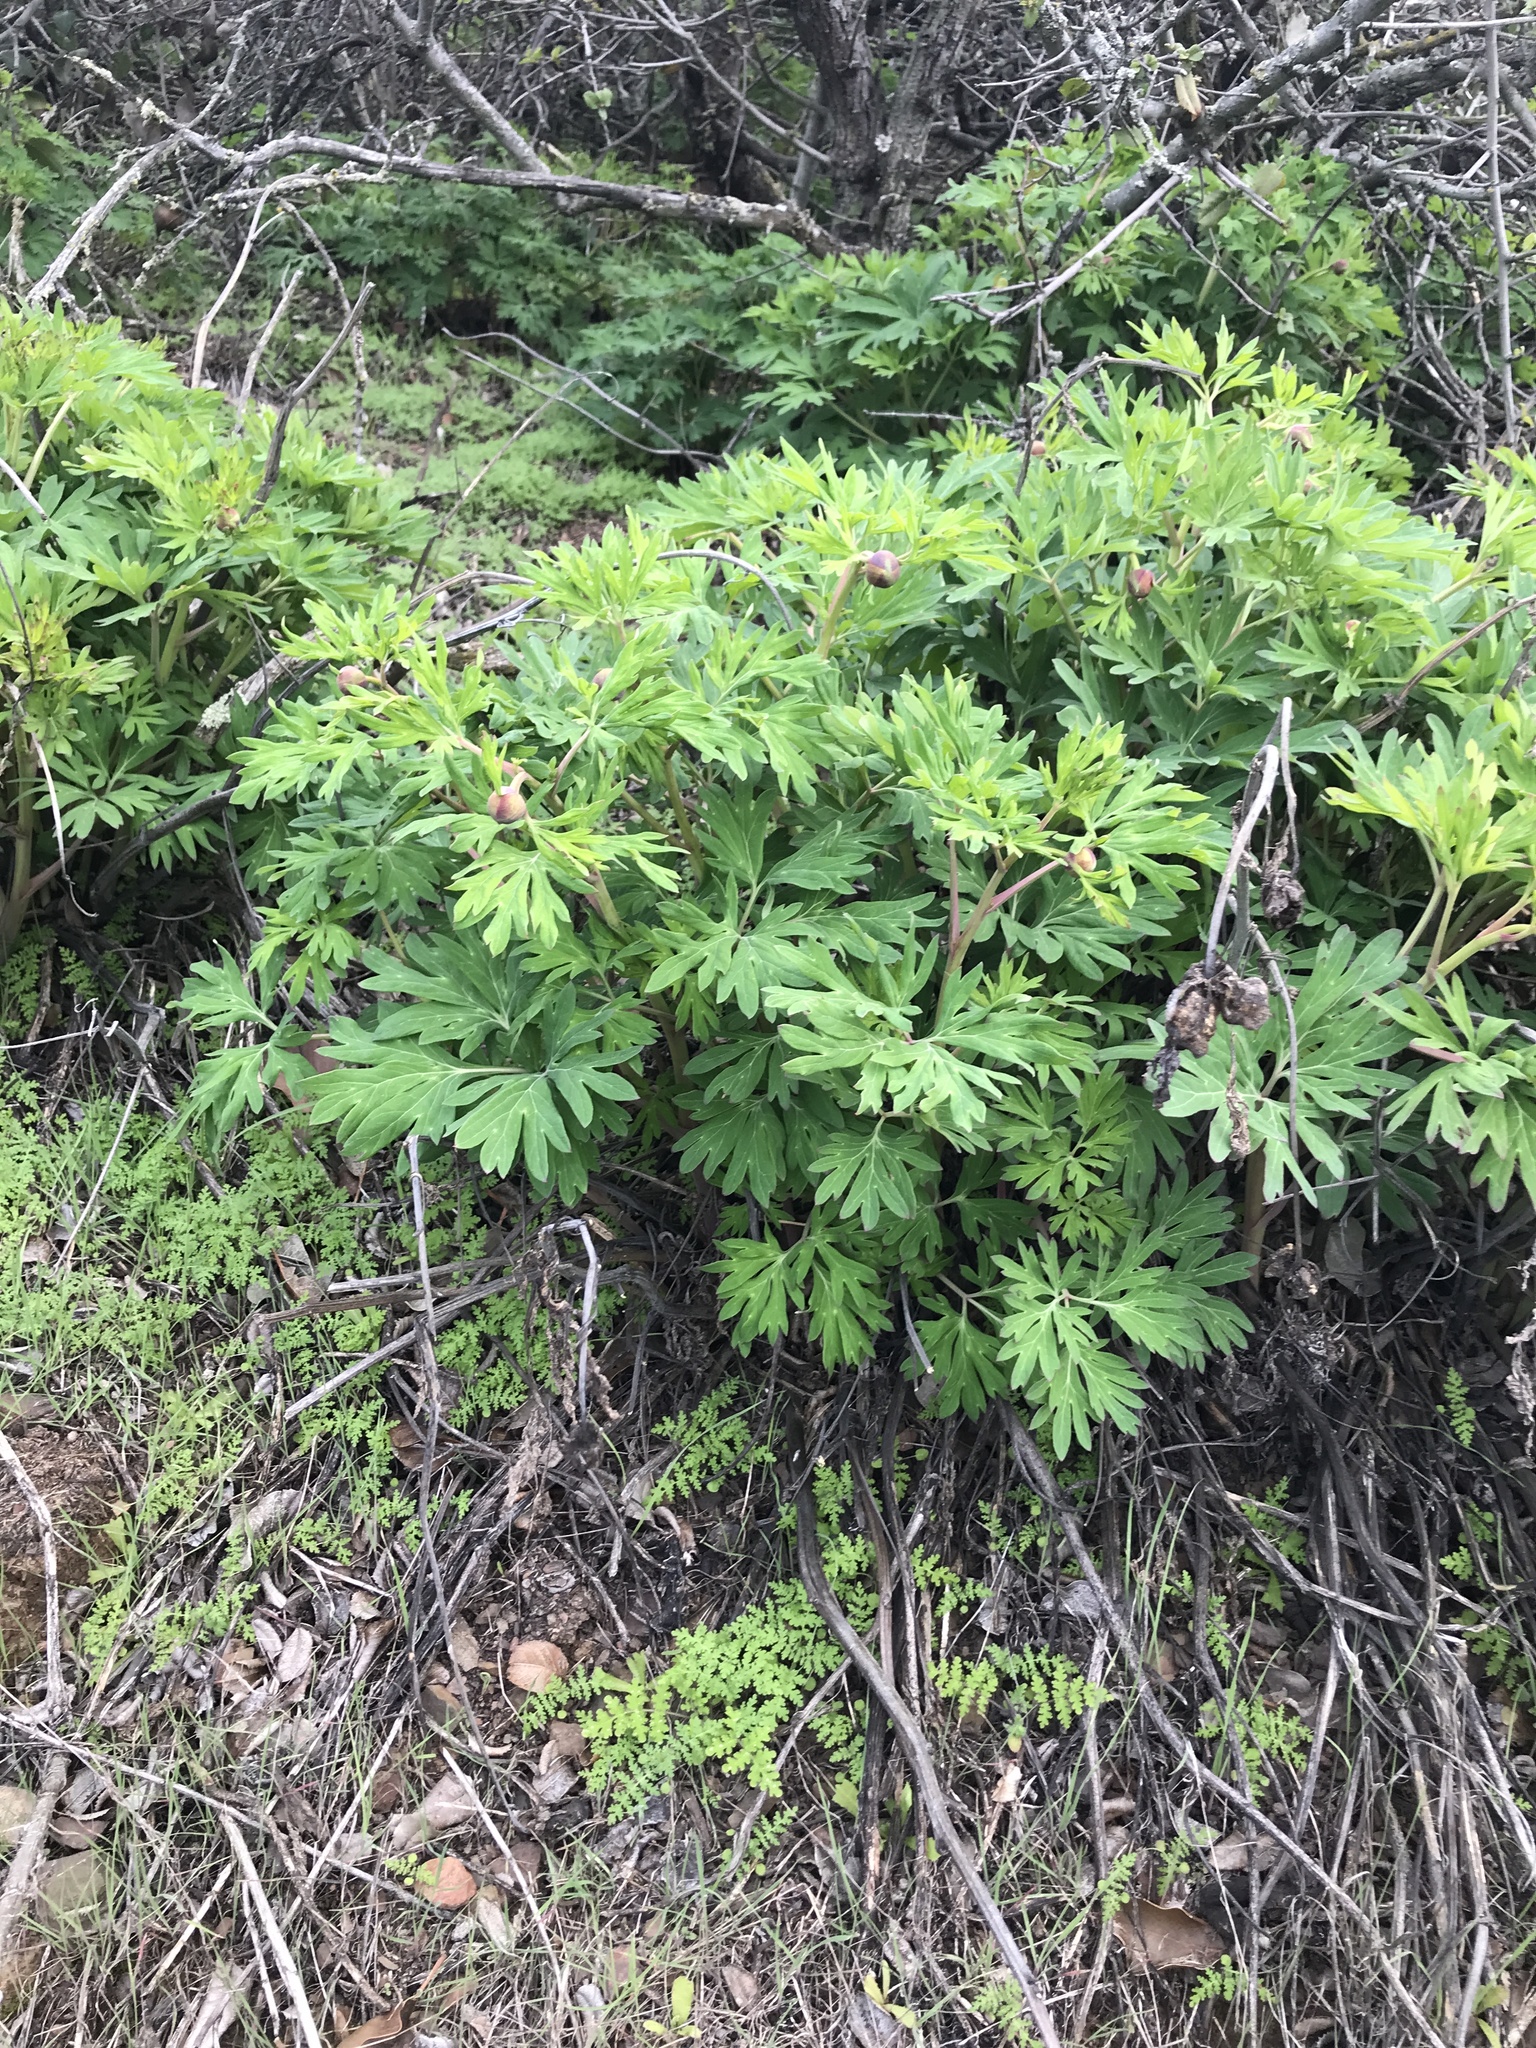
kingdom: Plantae
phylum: Tracheophyta
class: Magnoliopsida
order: Saxifragales
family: Paeoniaceae
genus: Paeonia
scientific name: Paeonia californica
